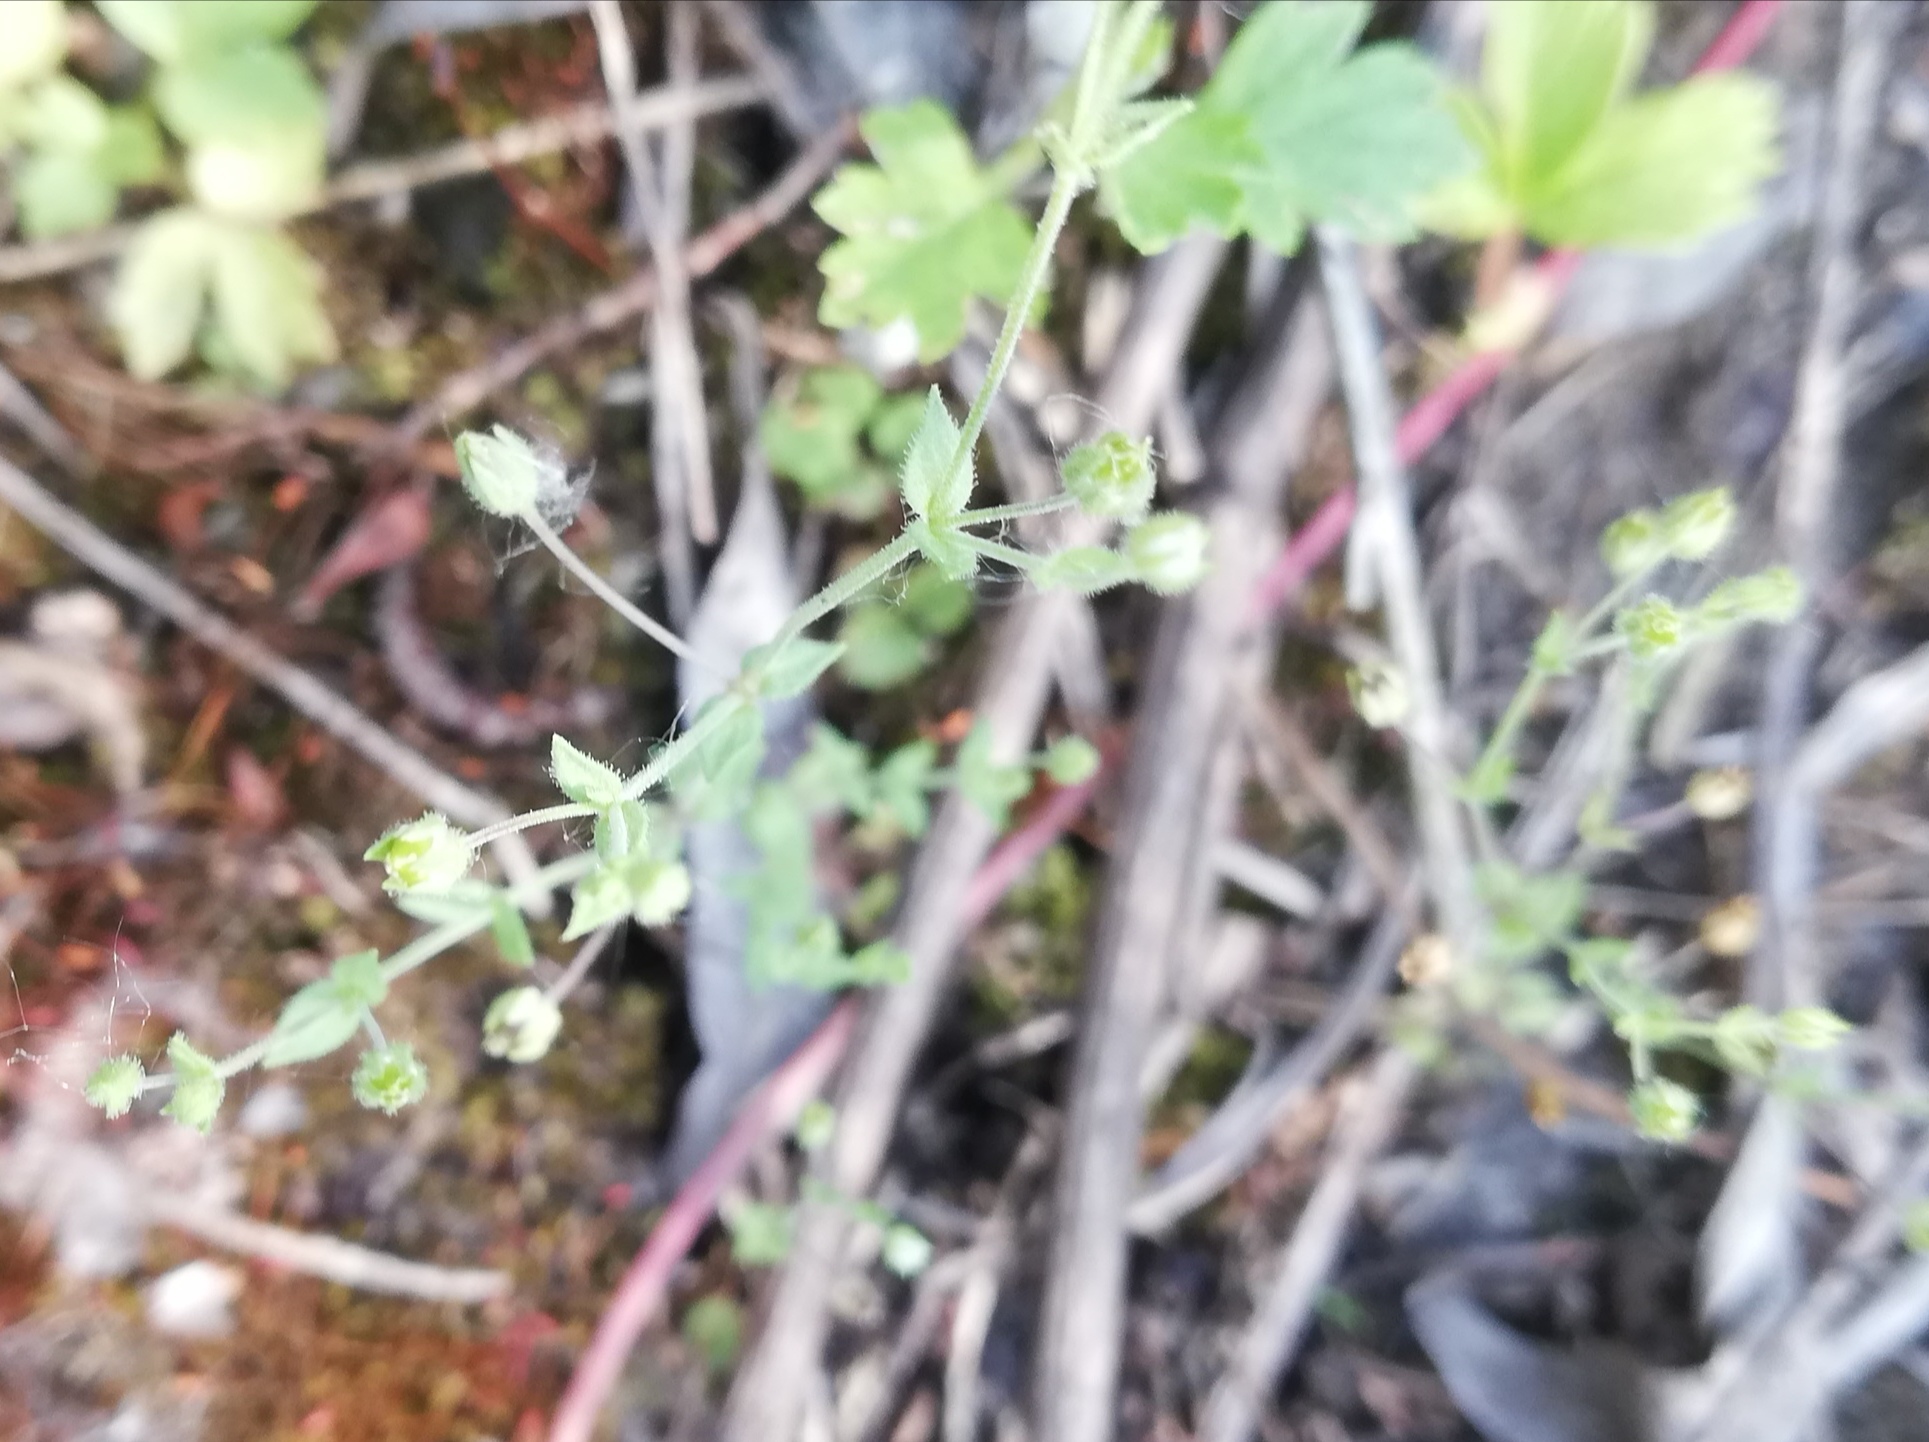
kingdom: Plantae
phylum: Tracheophyta
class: Magnoliopsida
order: Caryophyllales
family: Caryophyllaceae
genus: Arenaria
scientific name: Arenaria serpyllifolia
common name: Thyme-leaved sandwort
